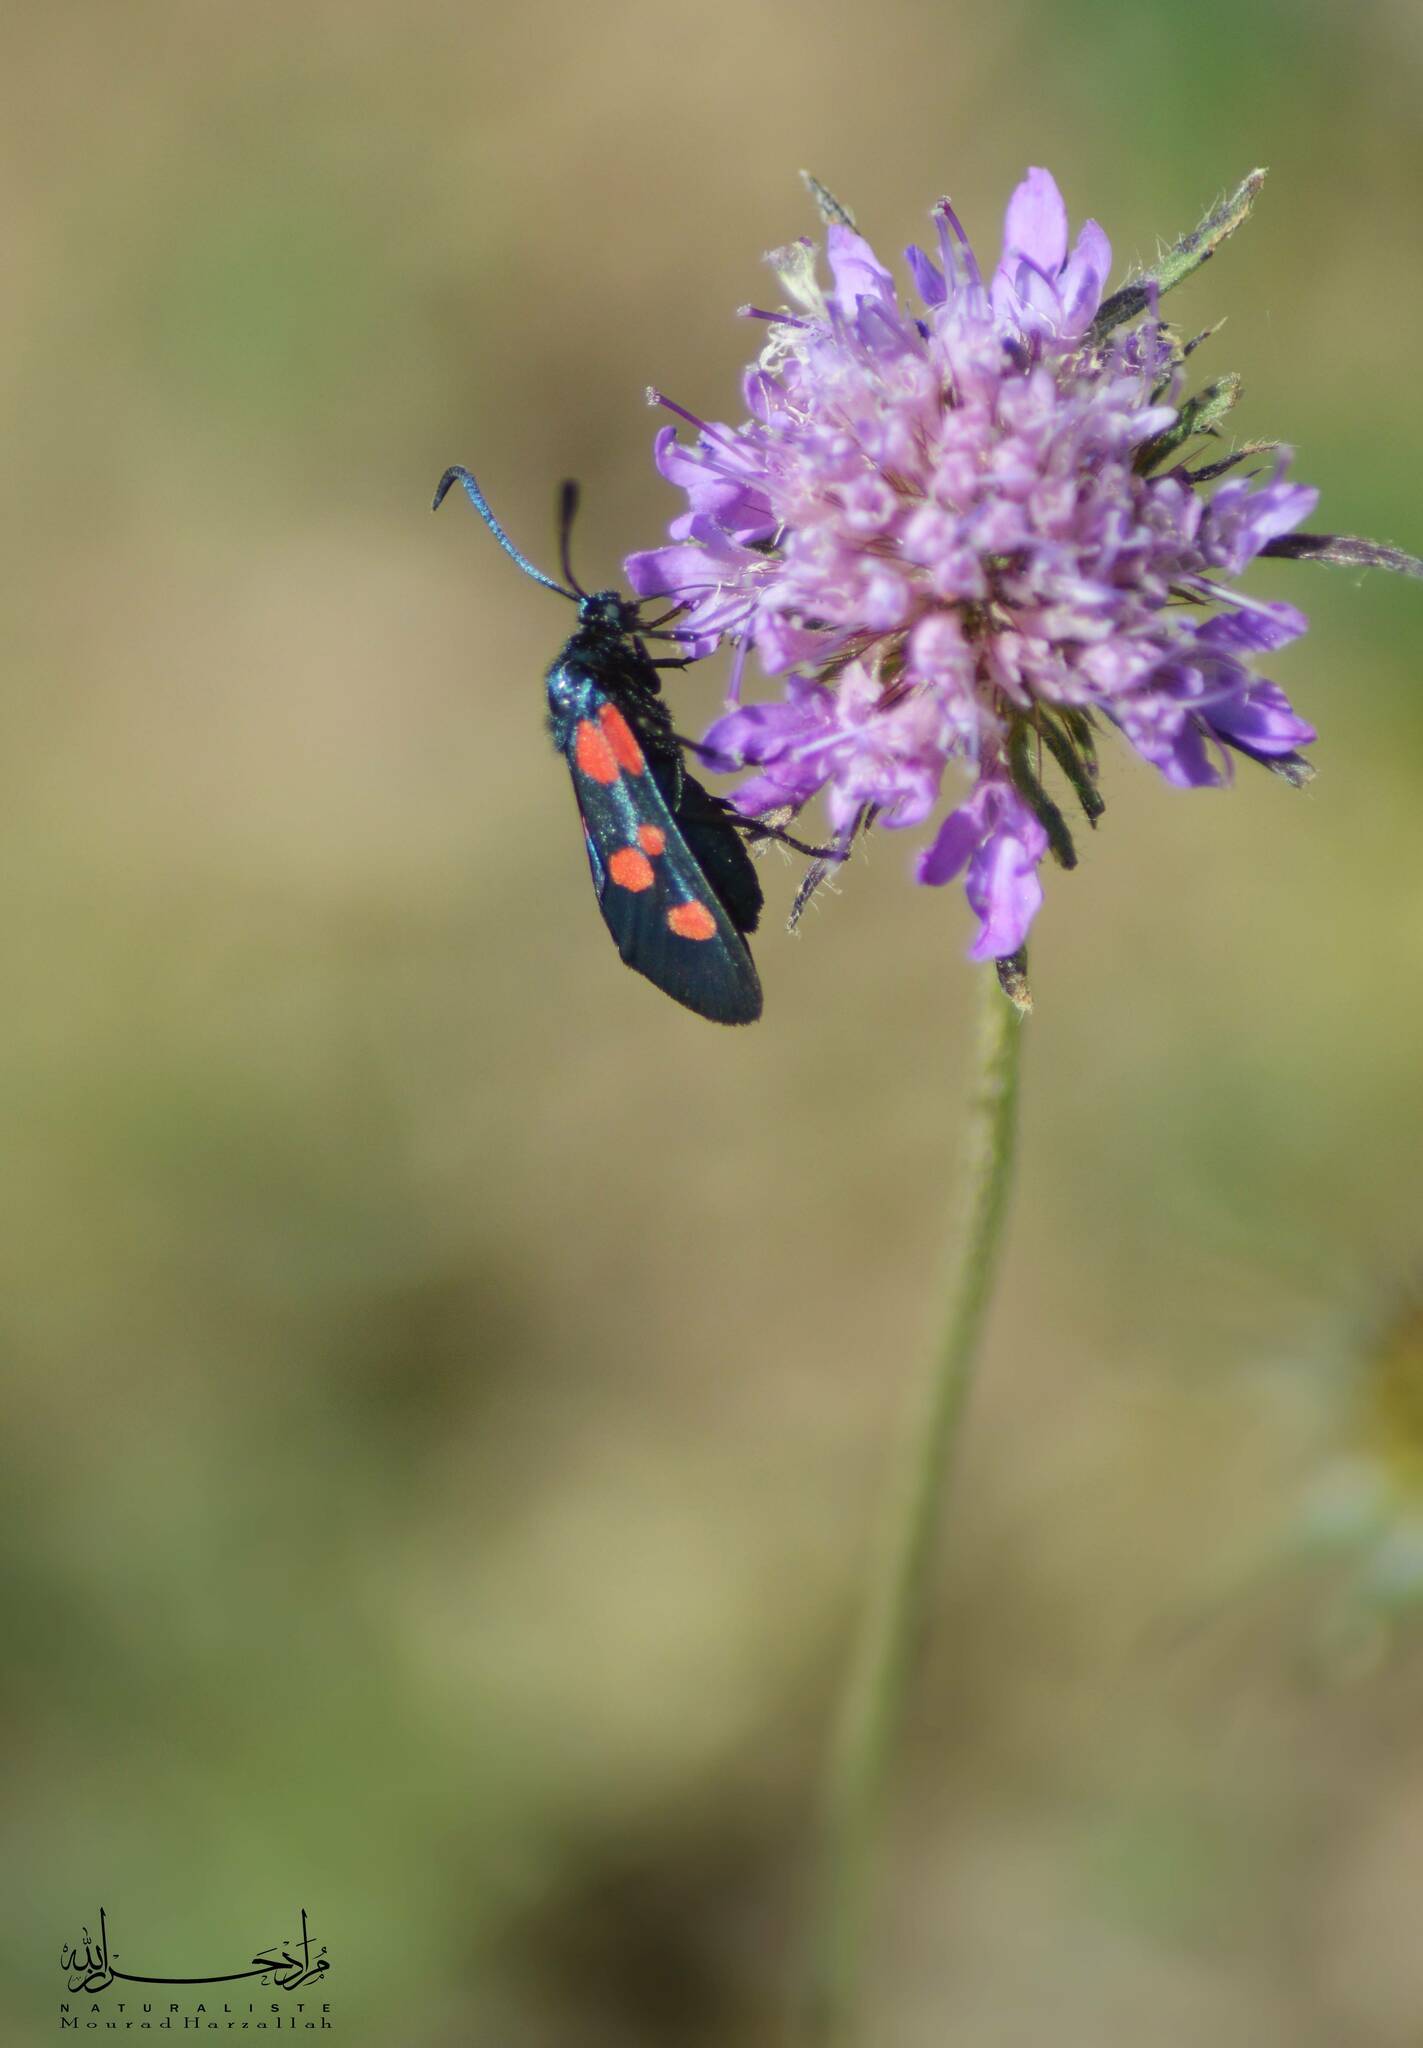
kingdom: Animalia
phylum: Arthropoda
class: Insecta
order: Lepidoptera
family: Zygaenidae
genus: Zygaena
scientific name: Zygaena trifolii
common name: Five-spot burnet
